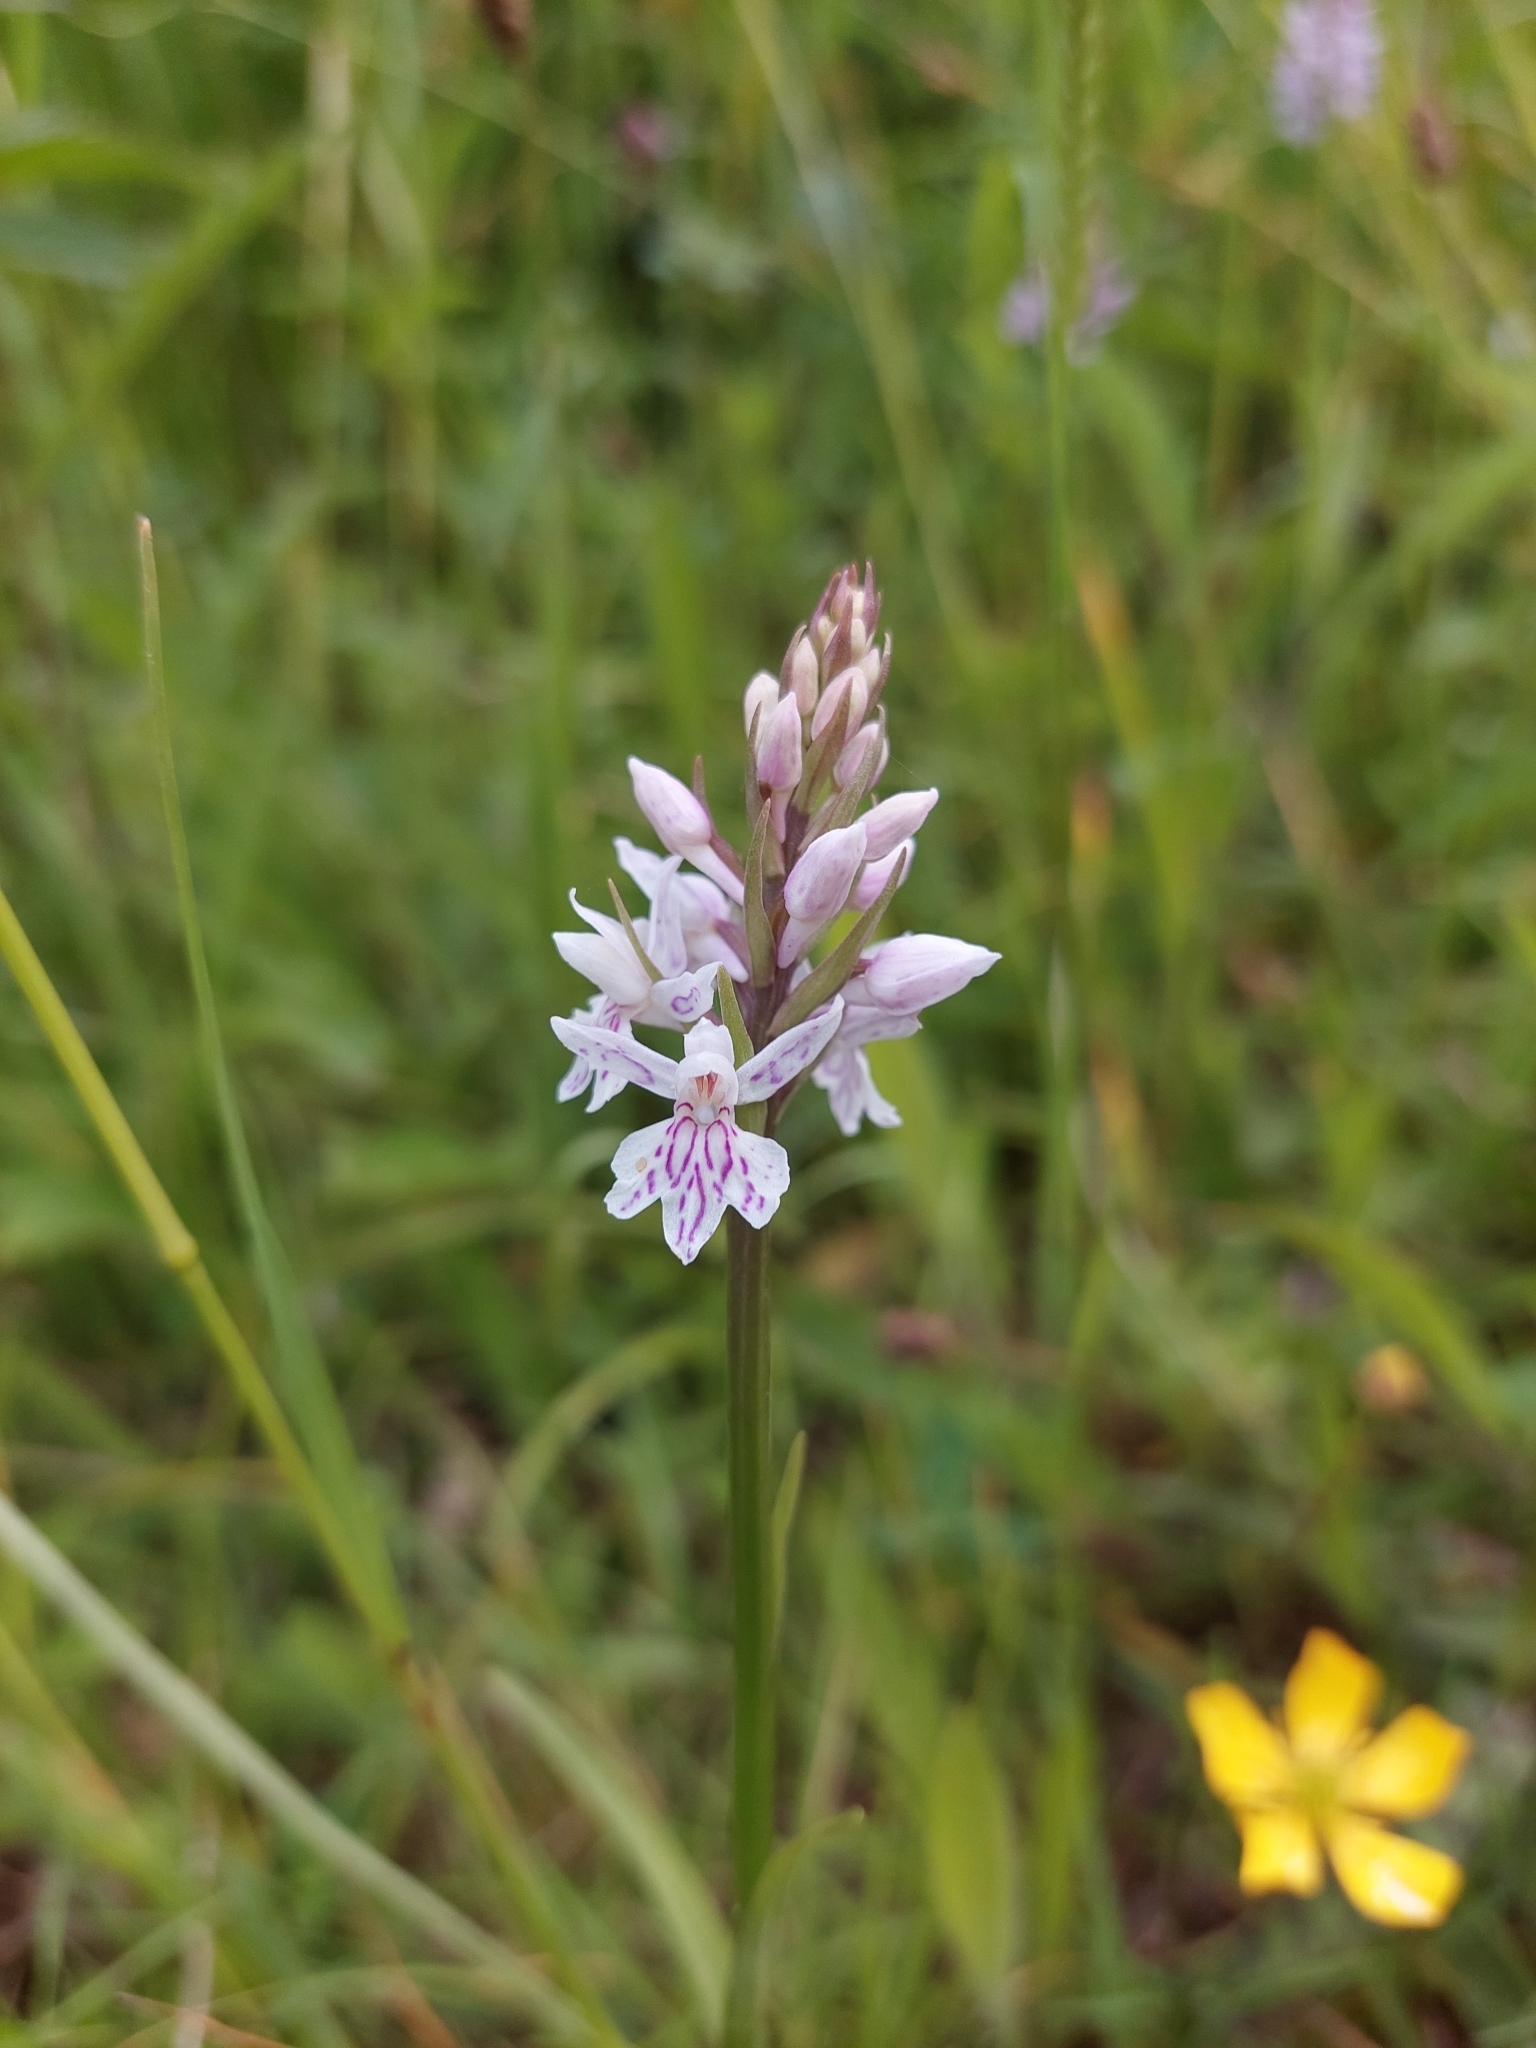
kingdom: Plantae
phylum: Tracheophyta
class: Liliopsida
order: Asparagales
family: Orchidaceae
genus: Dactylorhiza
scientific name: Dactylorhiza maculata
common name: Heath spotted-orchid
